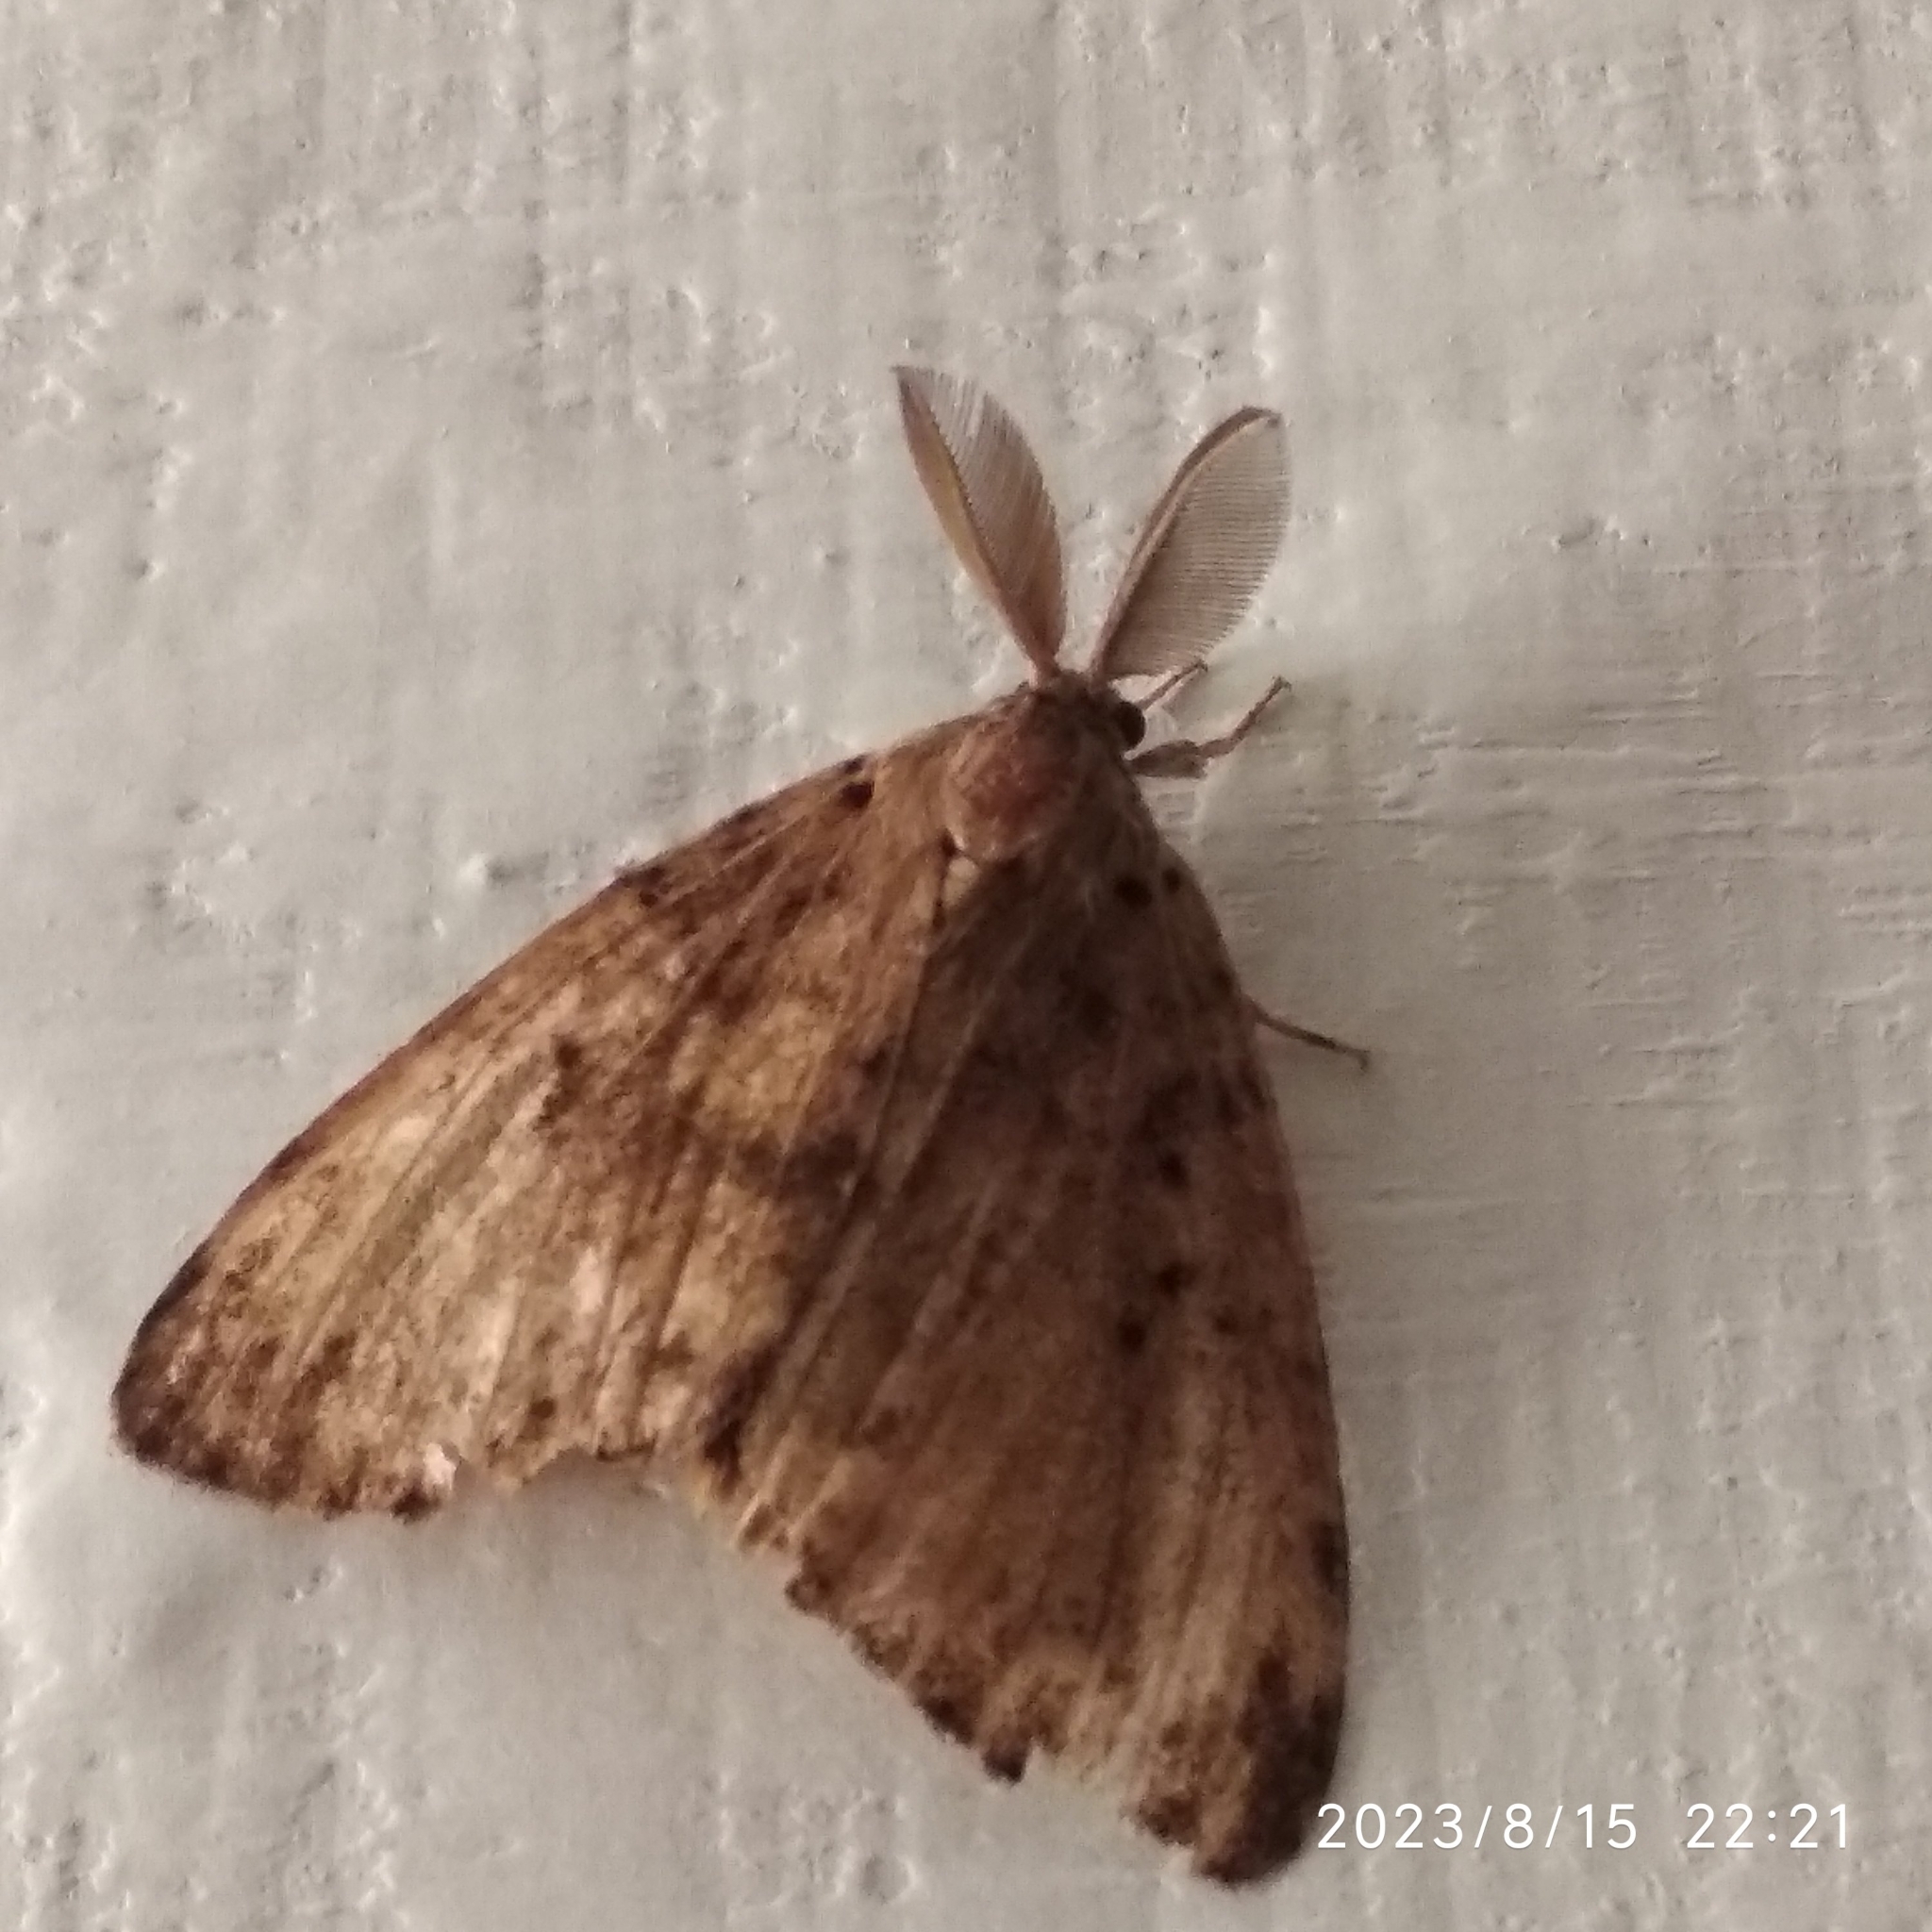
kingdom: Animalia
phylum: Arthropoda
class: Insecta
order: Lepidoptera
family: Erebidae
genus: Lymantria
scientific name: Lymantria dispar
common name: Gypsy moth
